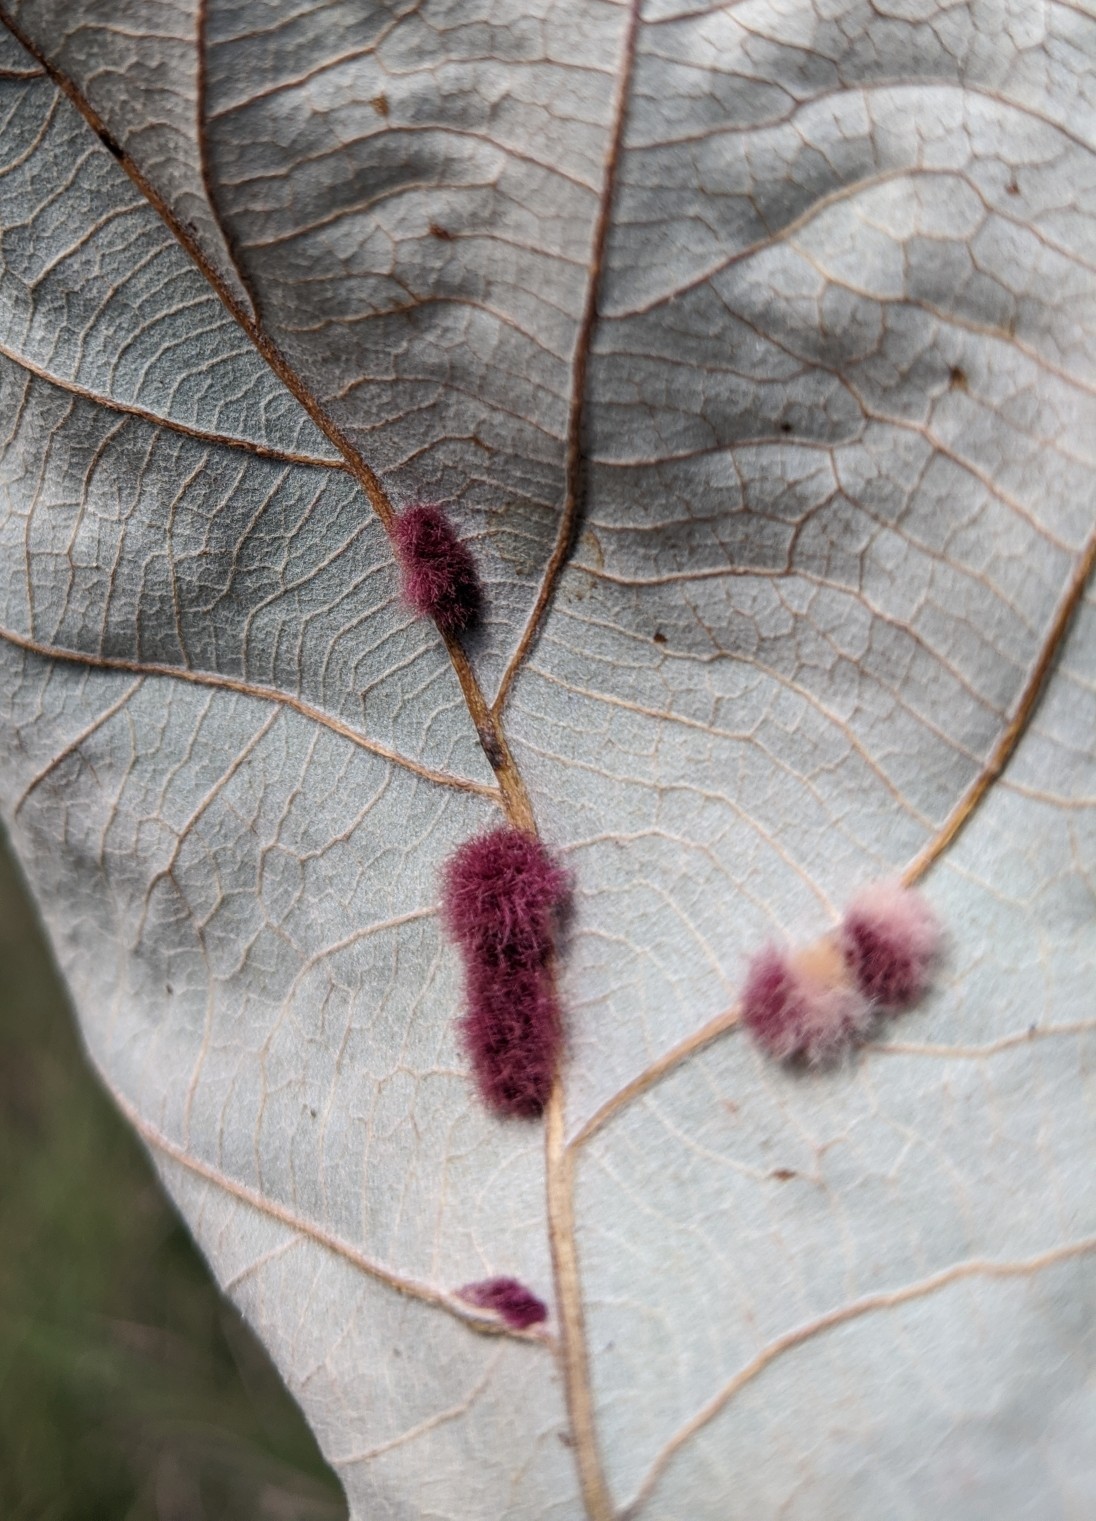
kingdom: Animalia
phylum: Arthropoda
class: Insecta
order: Hymenoptera
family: Cynipidae
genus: Andricus
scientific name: Andricus Druon ignotum
